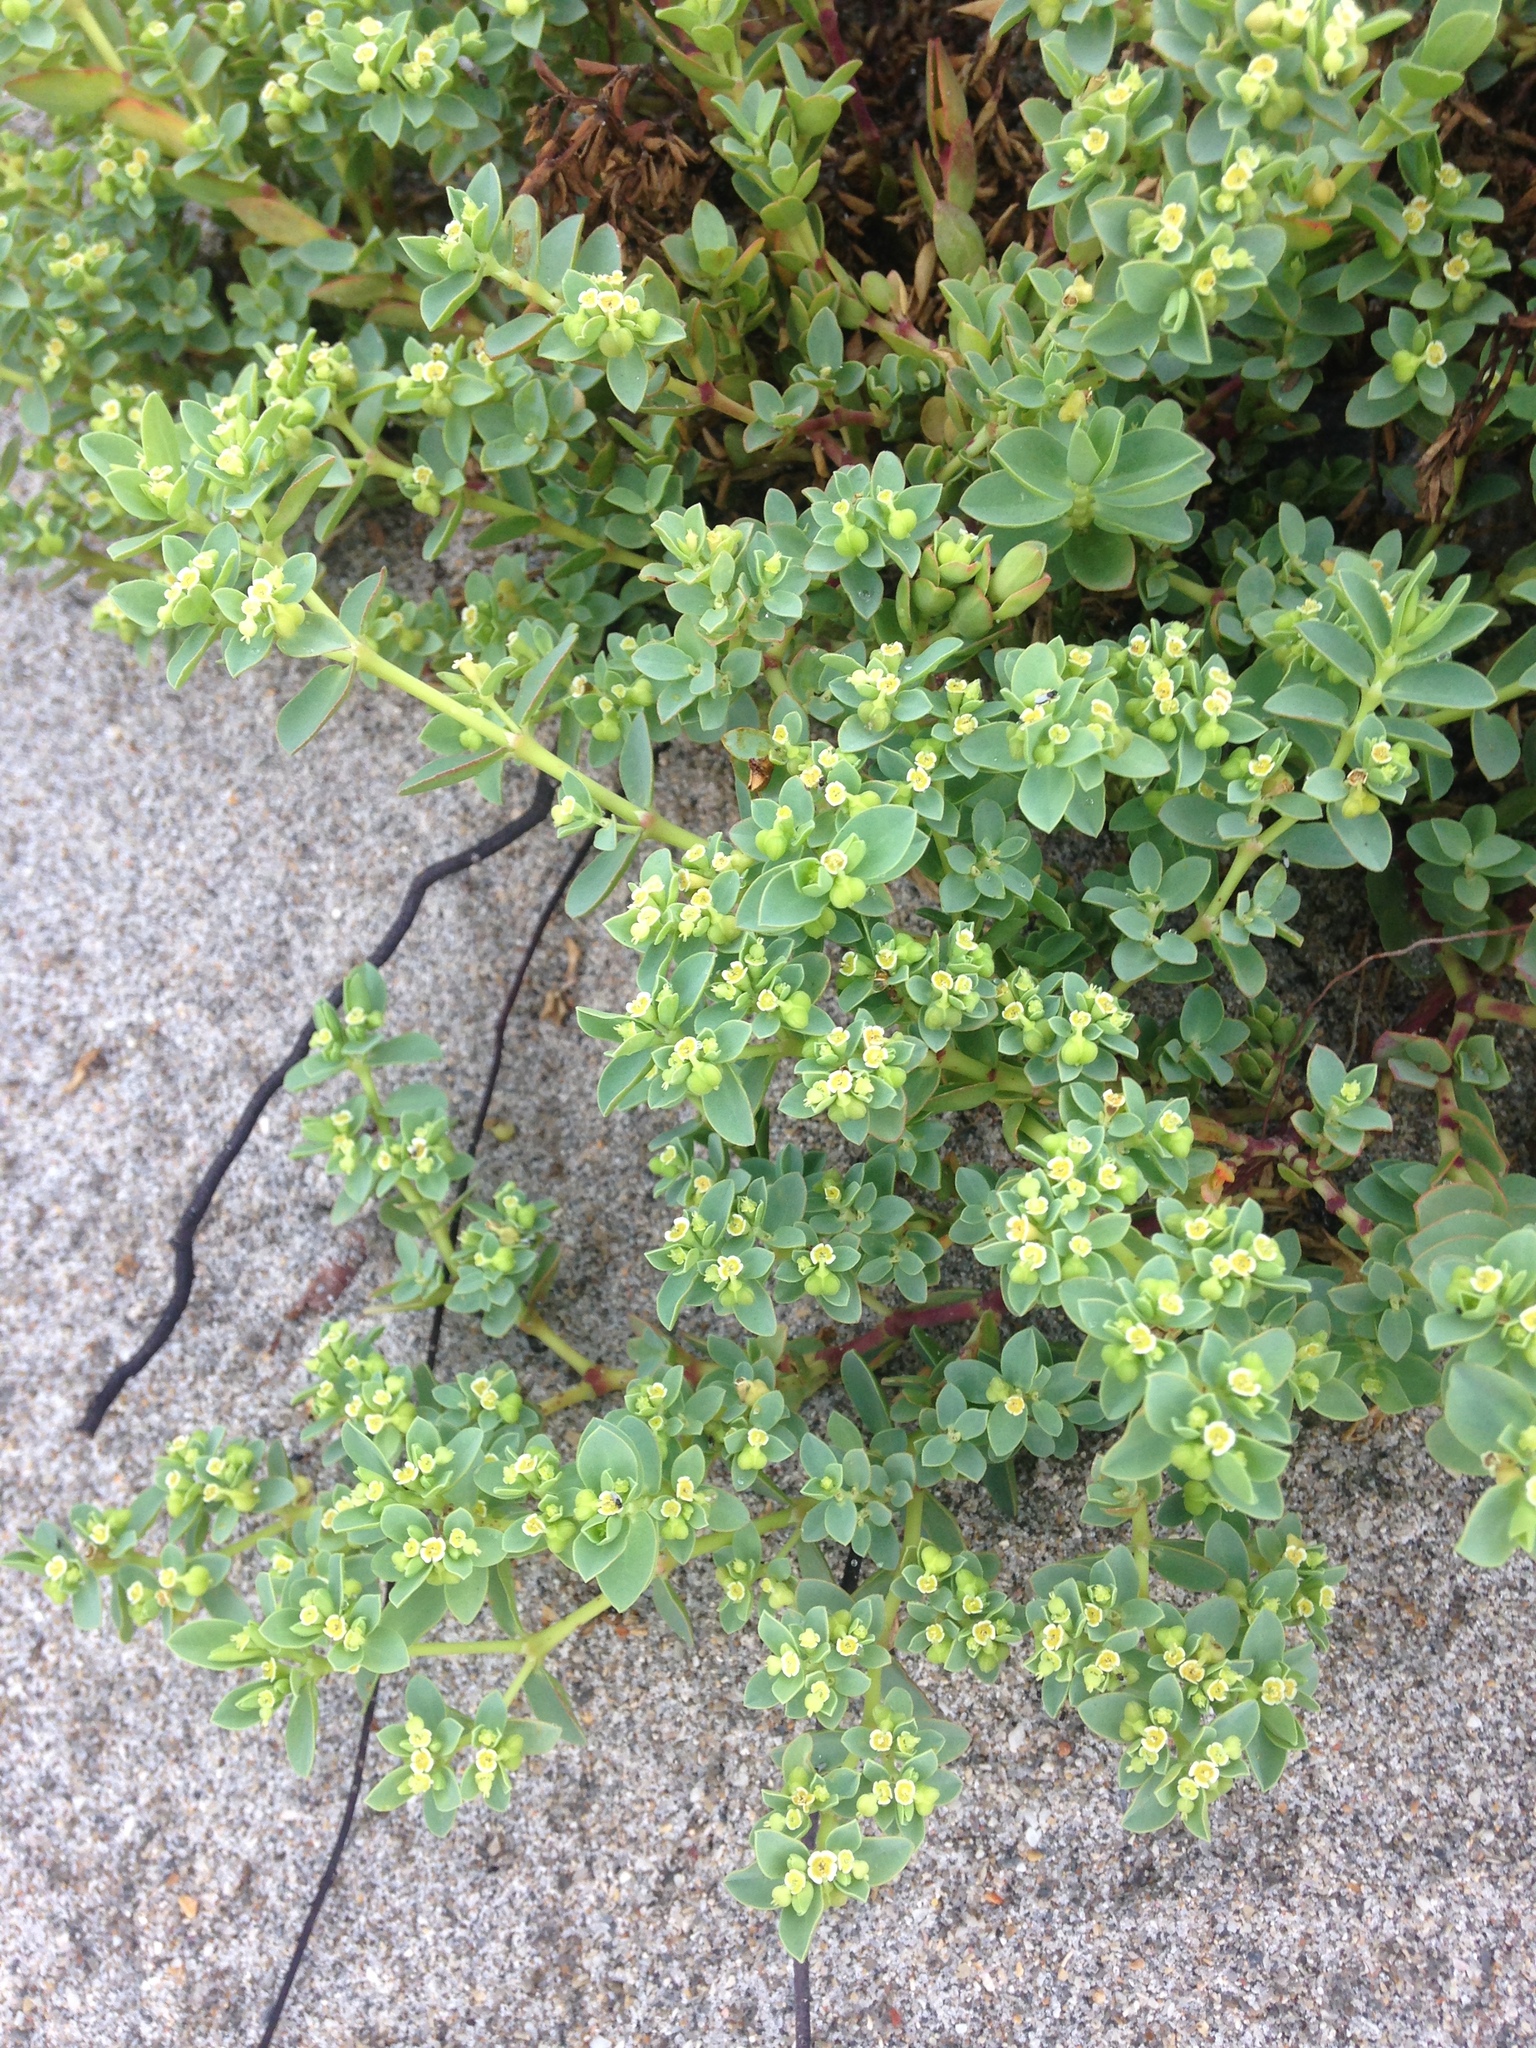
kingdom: Plantae
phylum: Tracheophyta
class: Magnoliopsida
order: Malpighiales
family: Euphorbiaceae
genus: Euphorbia
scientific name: Euphorbia mesembryanthemifolia
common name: Coastal beach sandmat
